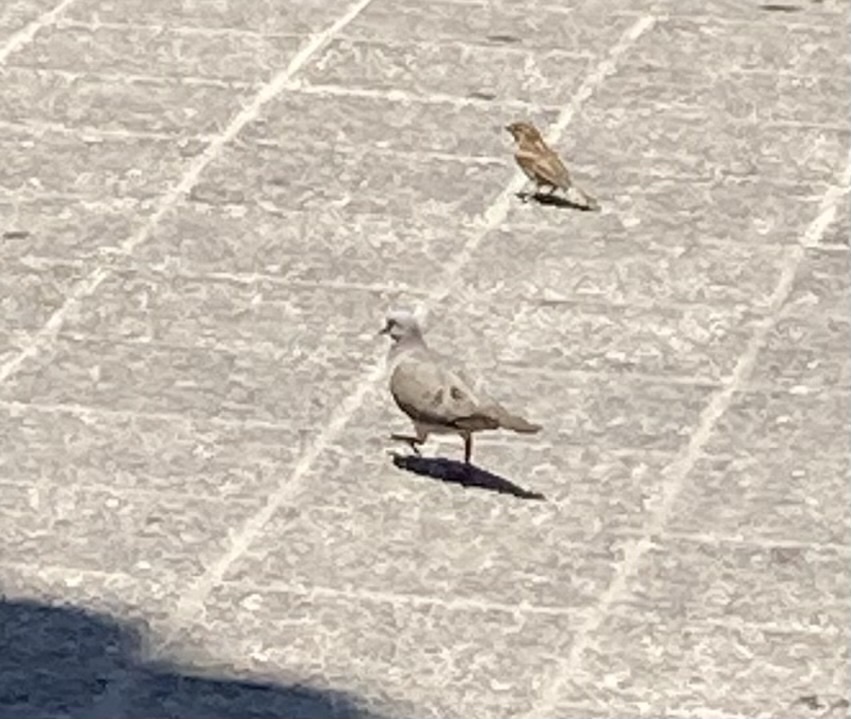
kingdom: Animalia
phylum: Chordata
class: Aves
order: Columbiformes
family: Columbidae
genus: Zenaida
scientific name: Zenaida auriculata
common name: Eared dove
